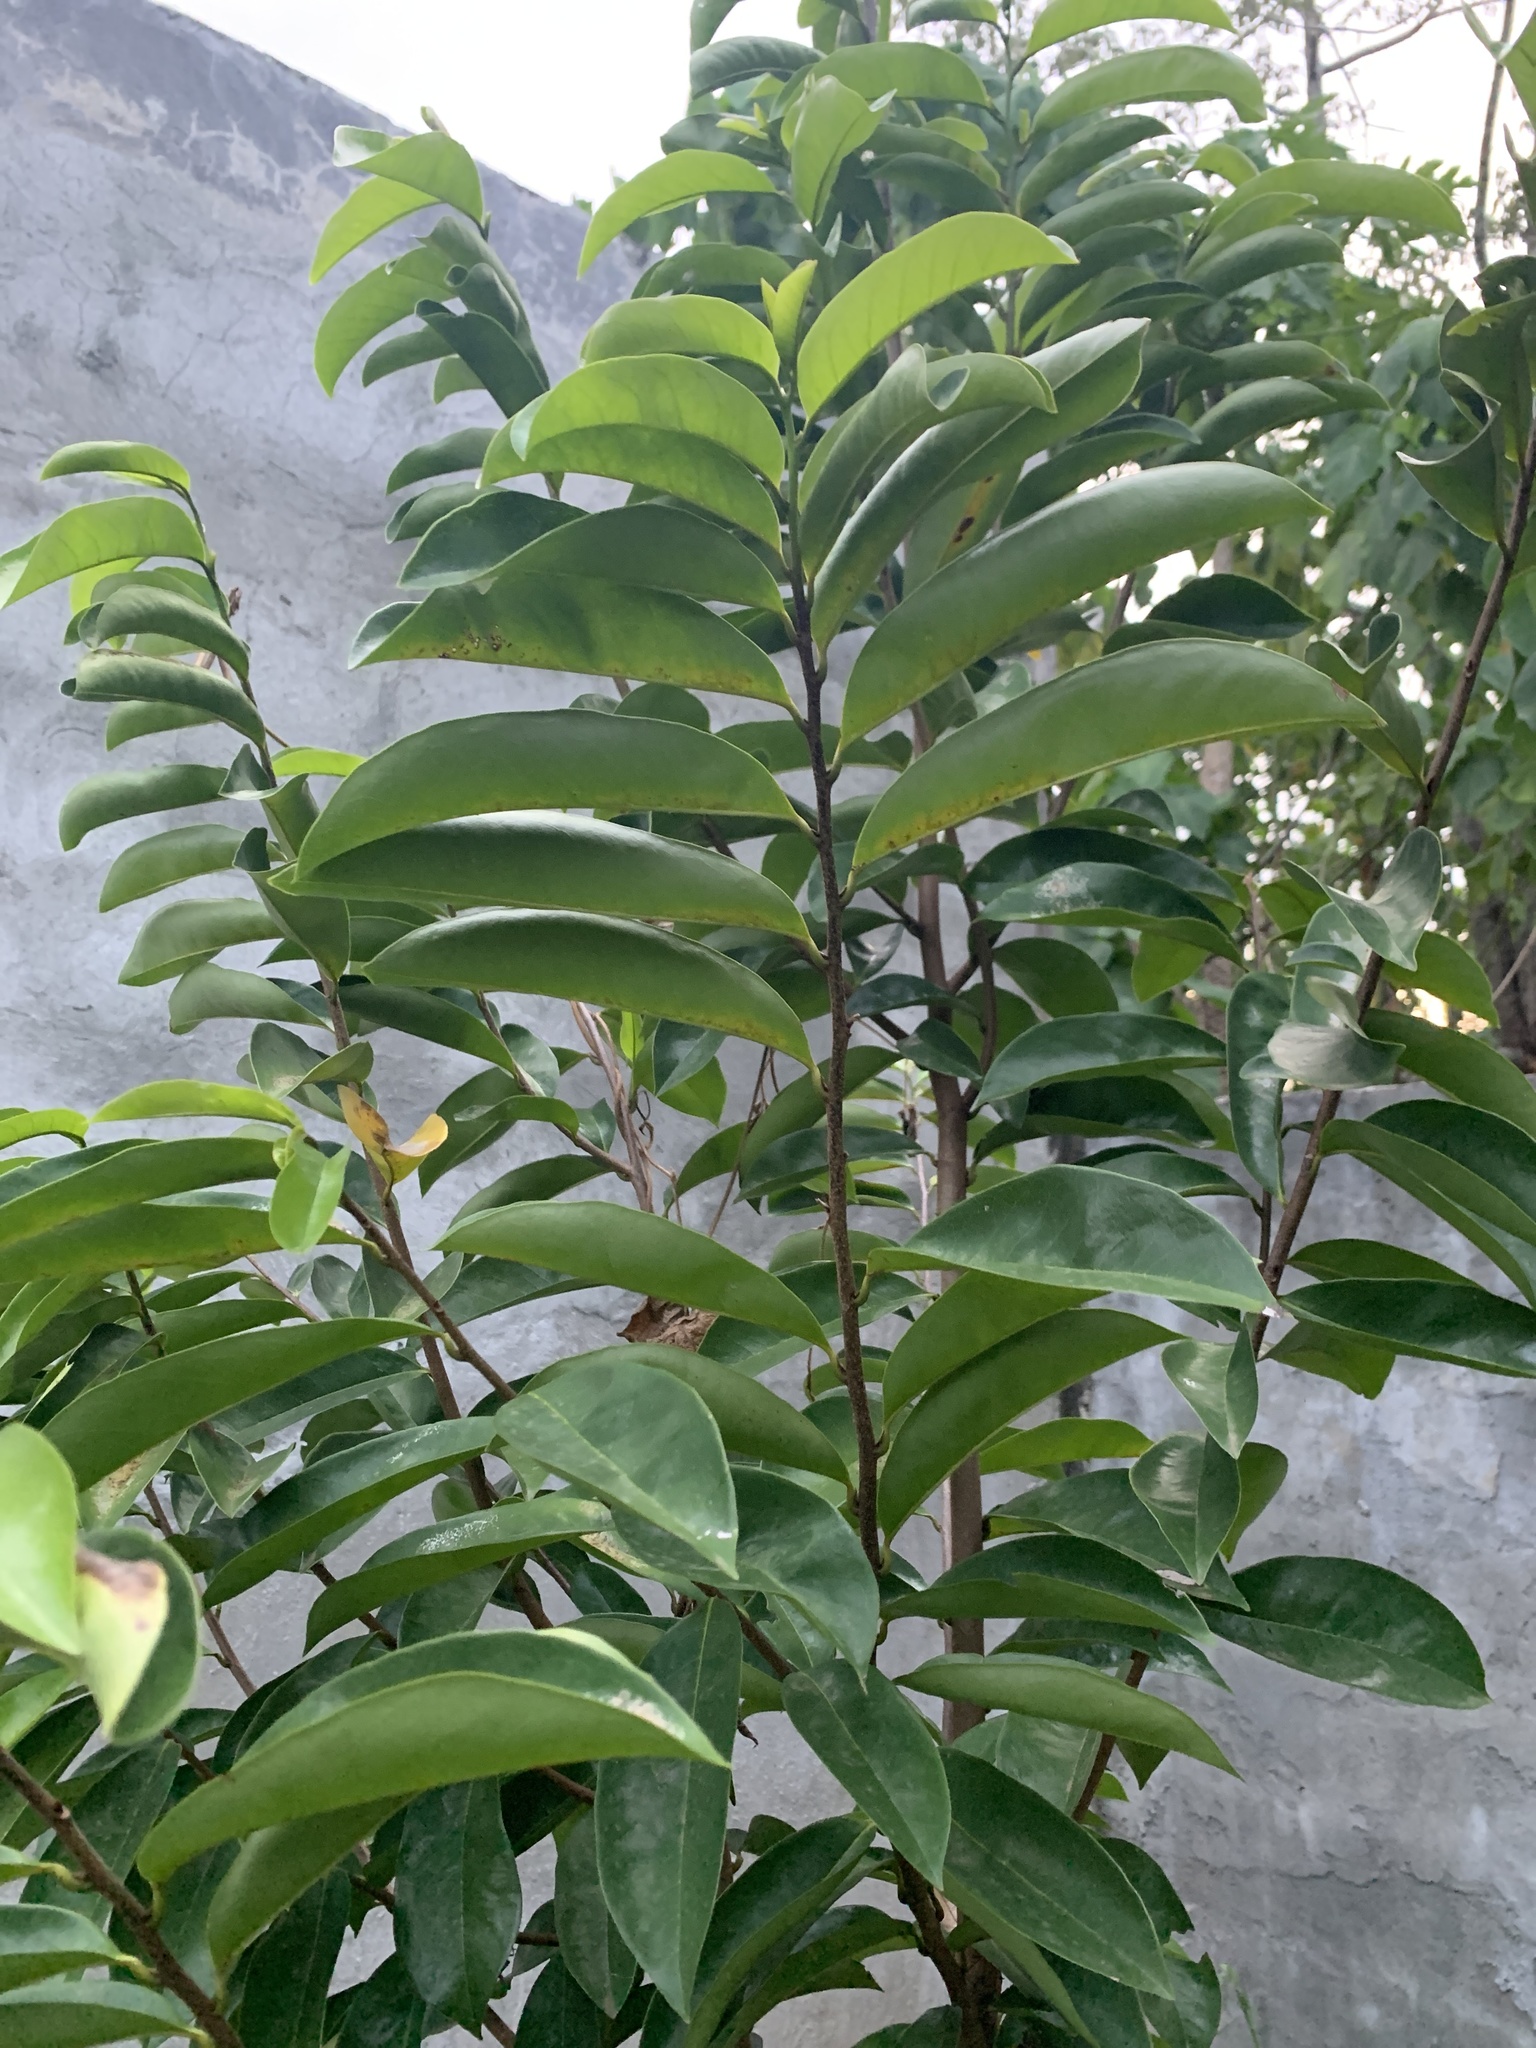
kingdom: Plantae
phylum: Tracheophyta
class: Magnoliopsida
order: Magnoliales
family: Annonaceae
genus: Annona
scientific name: Annona muricata
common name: Soursop
